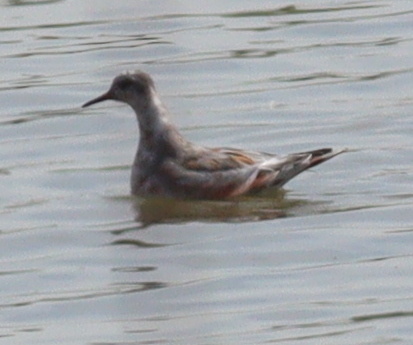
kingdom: Animalia
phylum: Chordata
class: Aves
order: Charadriiformes
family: Scolopacidae
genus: Phalaropus
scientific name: Phalaropus fulicarius
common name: Red phalarope
